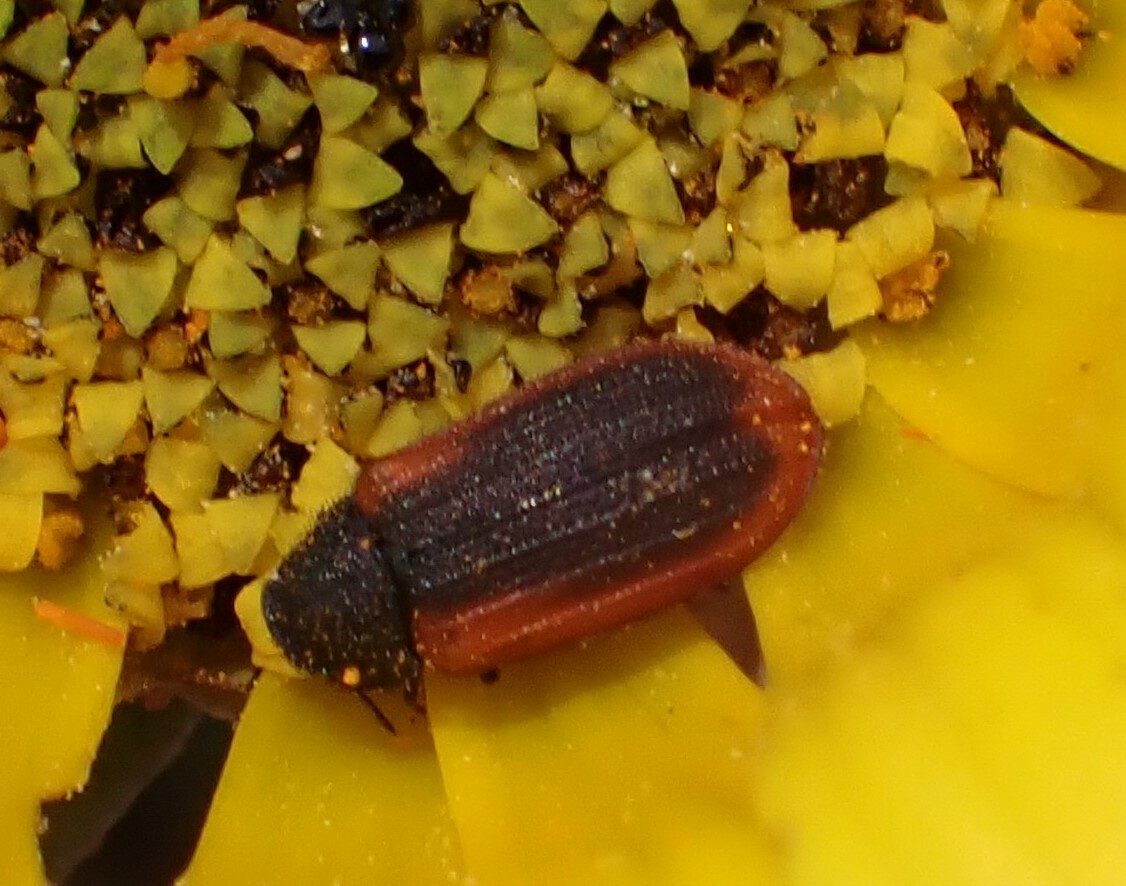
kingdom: Animalia
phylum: Arthropoda
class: Insecta
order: Coleoptera
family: Melyridae
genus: Melyris
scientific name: Melyris
